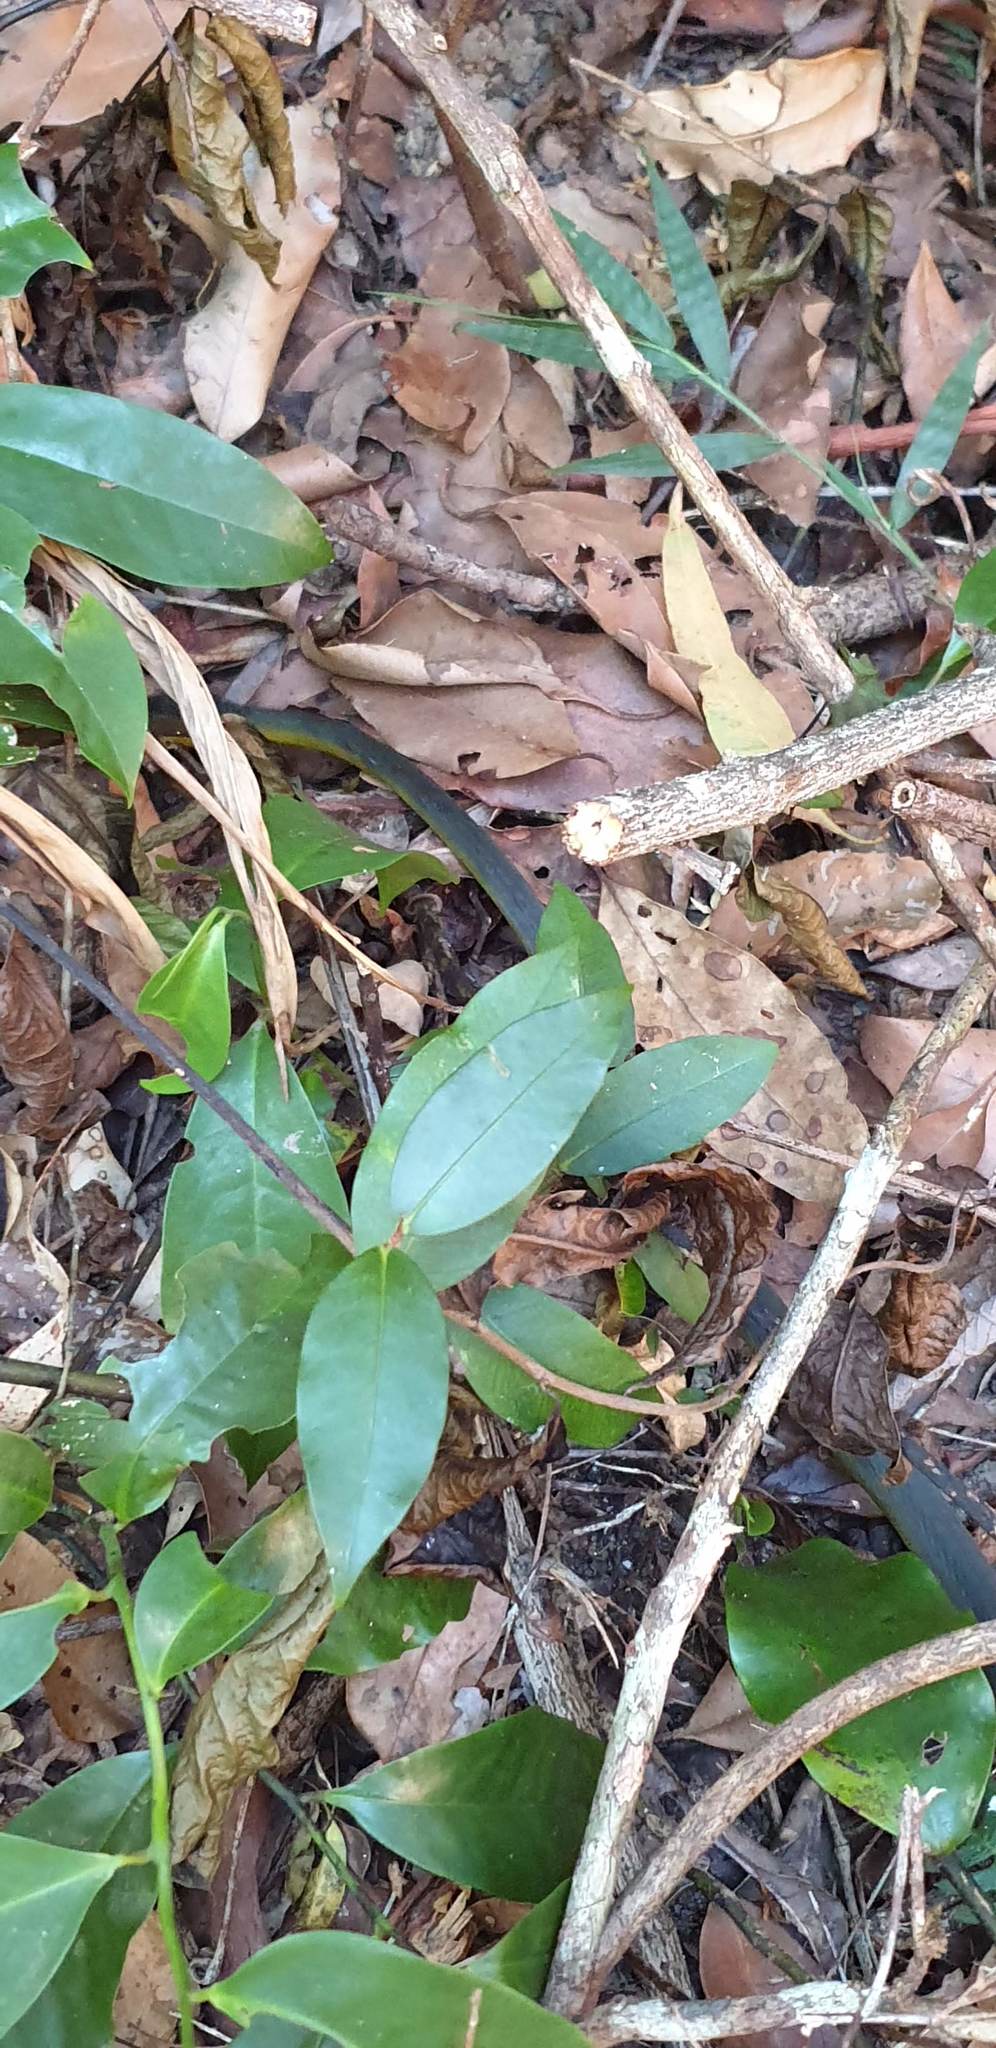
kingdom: Animalia
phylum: Chordata
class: Squamata
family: Colubridae
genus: Dendrelaphis
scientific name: Dendrelaphis punctulatus
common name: Common tree snake
